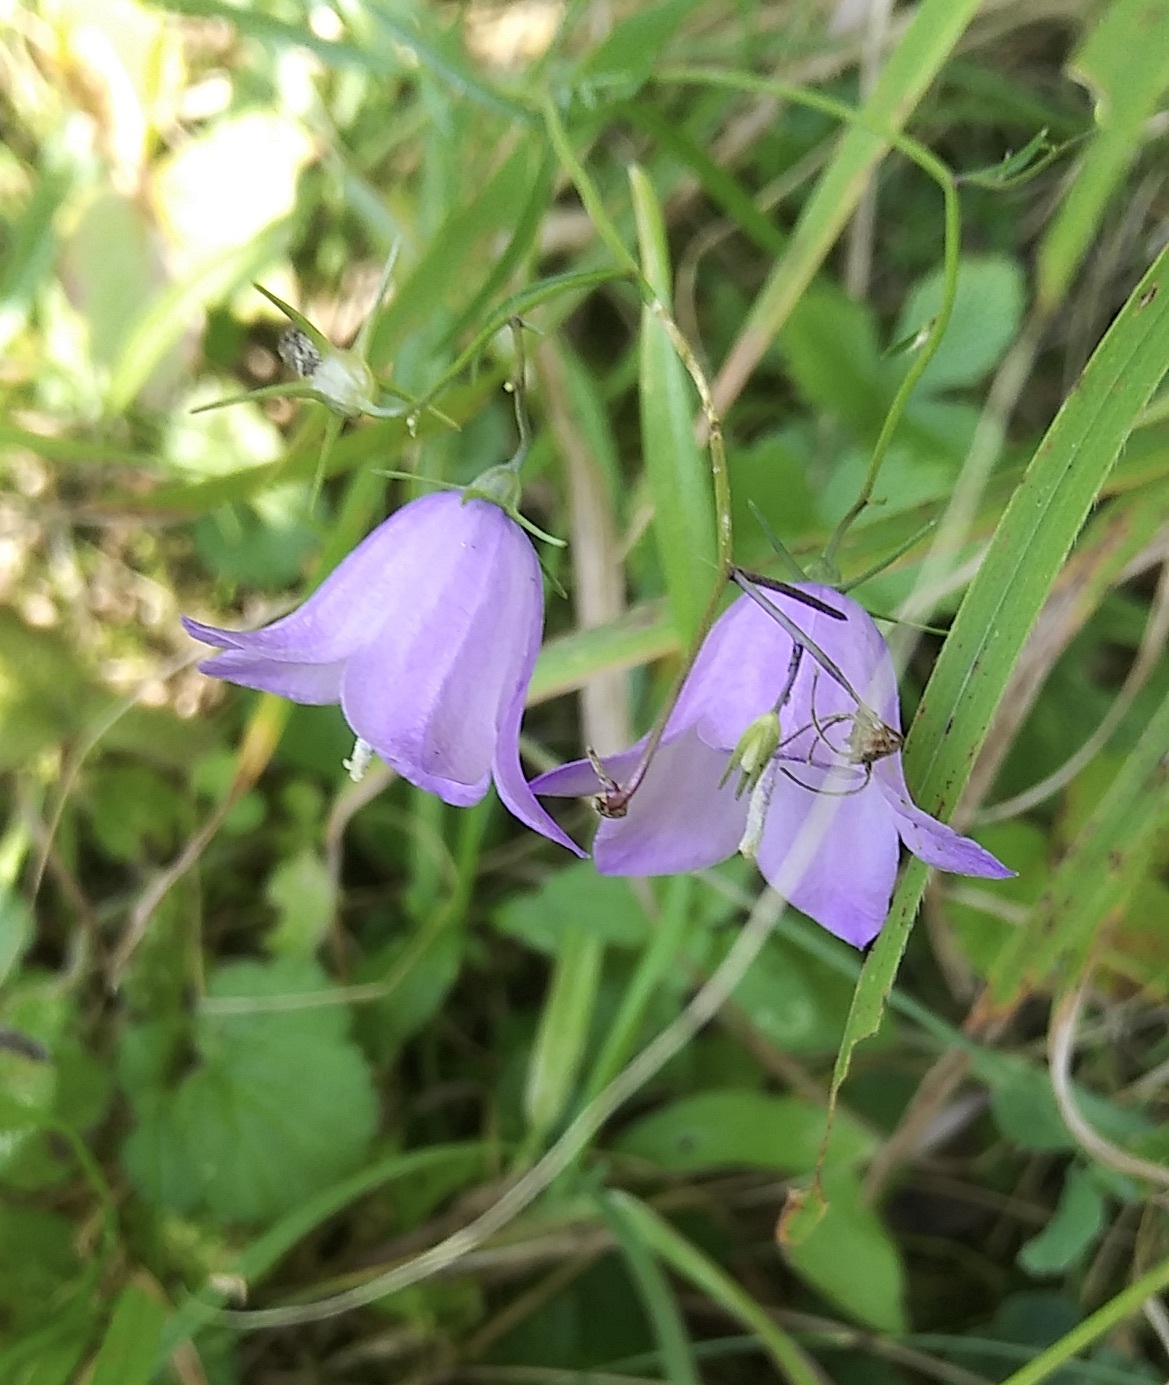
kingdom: Plantae
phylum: Tracheophyta
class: Magnoliopsida
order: Asterales
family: Campanulaceae
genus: Campanula
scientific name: Campanula rotundifolia
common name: Harebell
